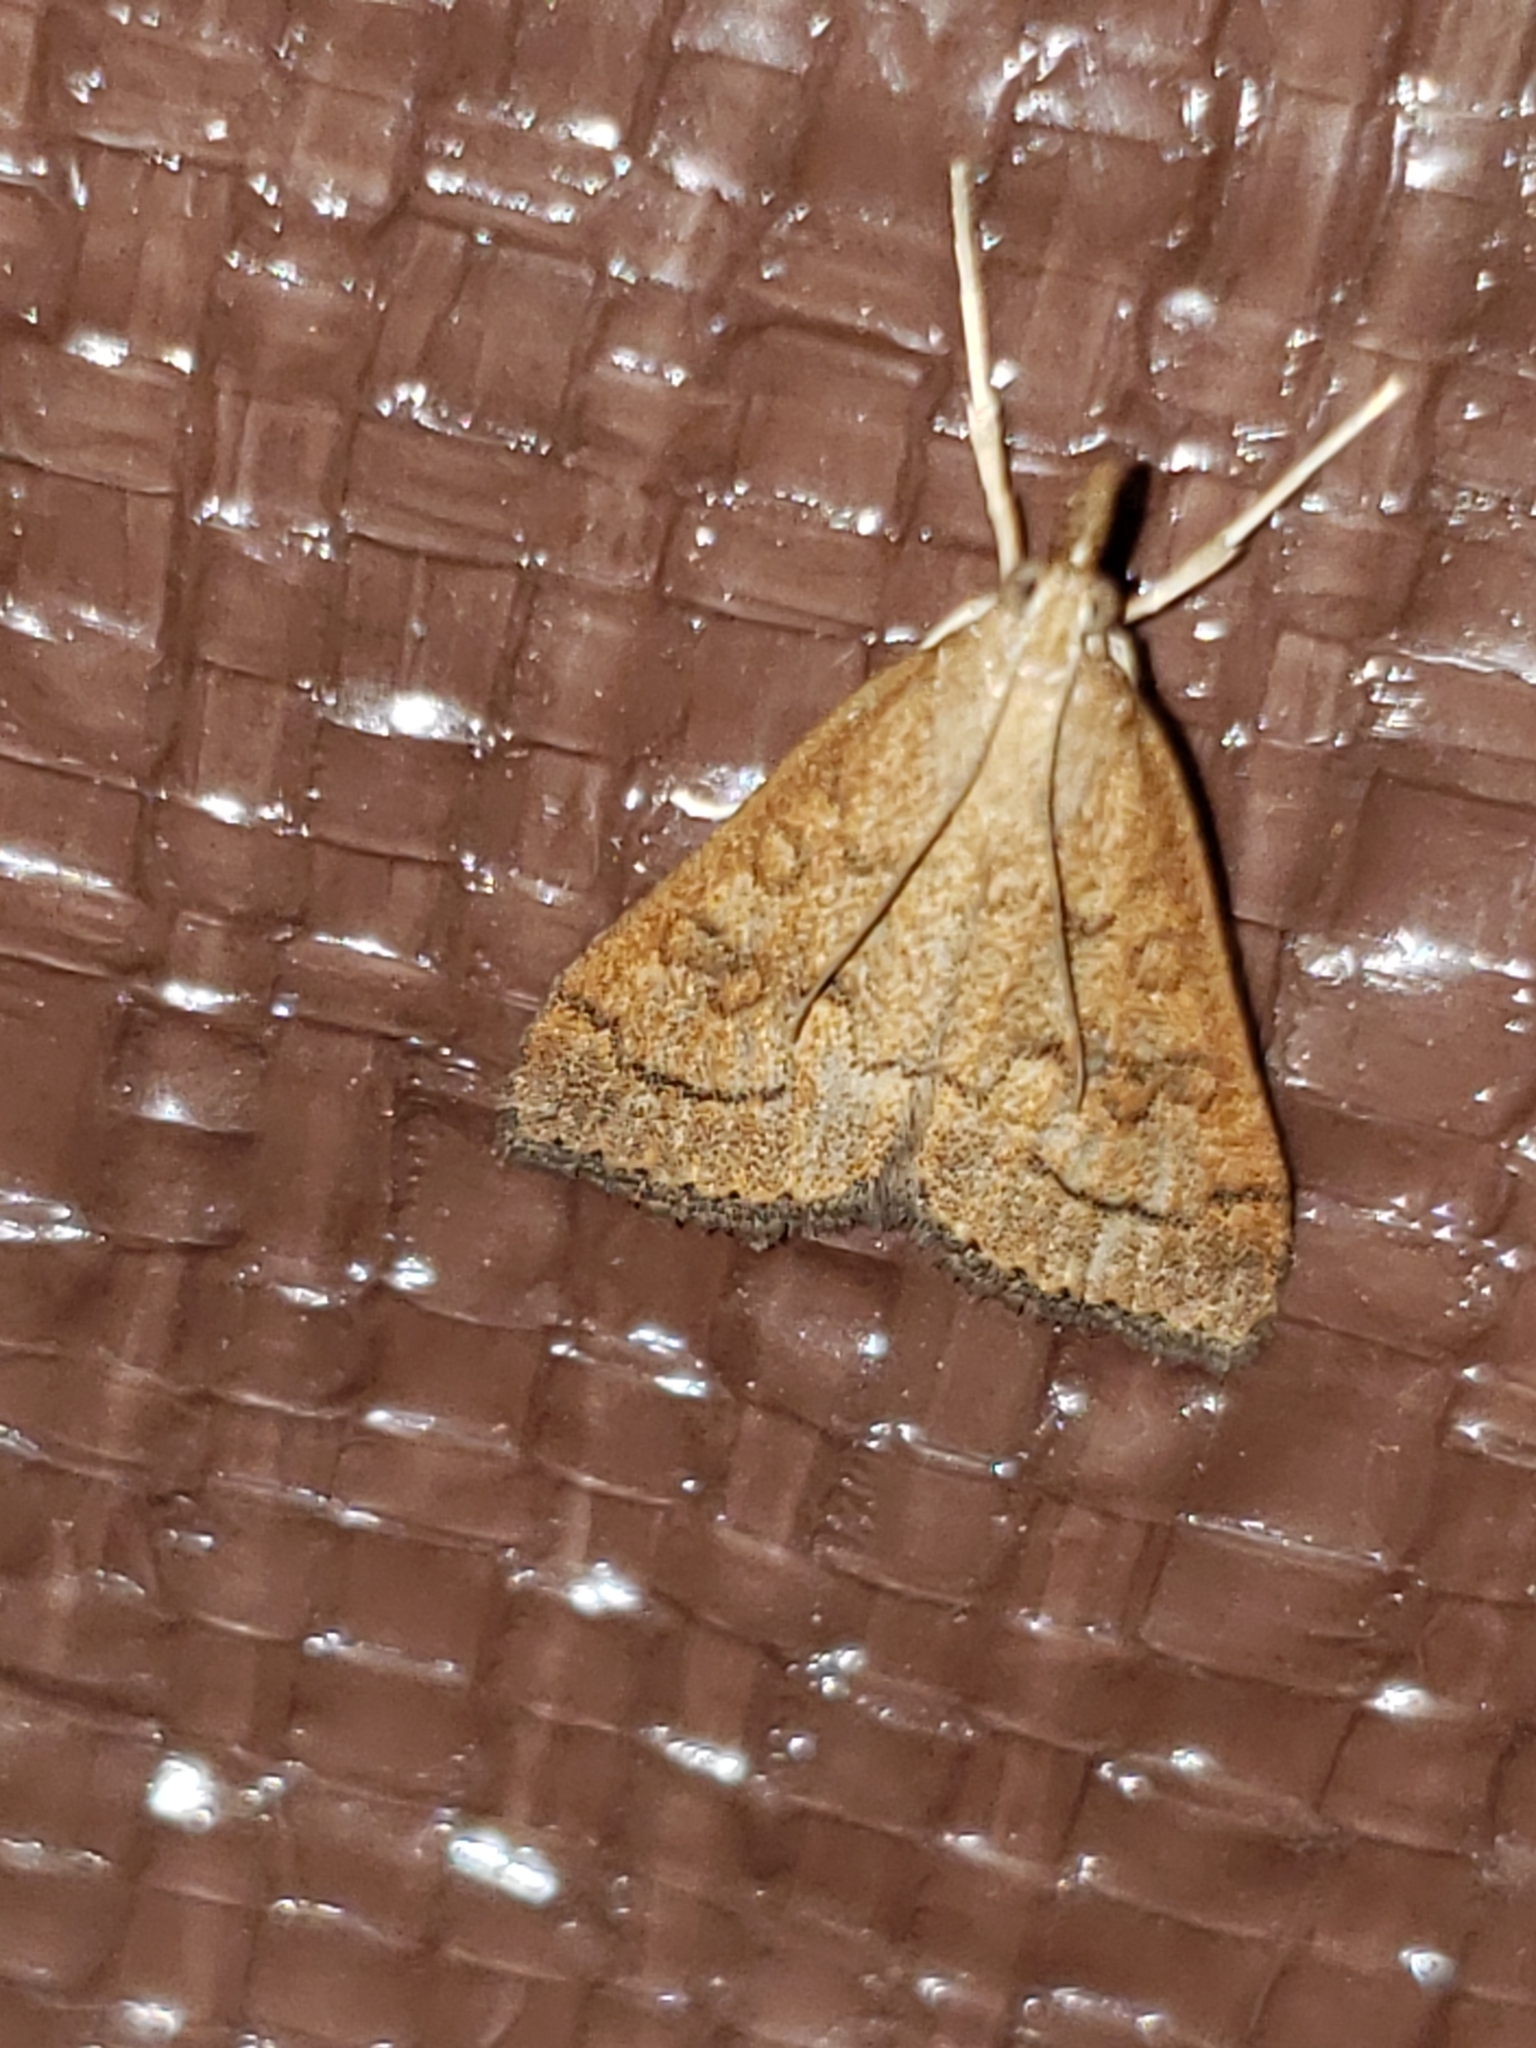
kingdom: Animalia
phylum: Arthropoda
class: Insecta
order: Lepidoptera
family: Crambidae
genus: Udea
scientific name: Udea rubigalis
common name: Celery leaftier moth
